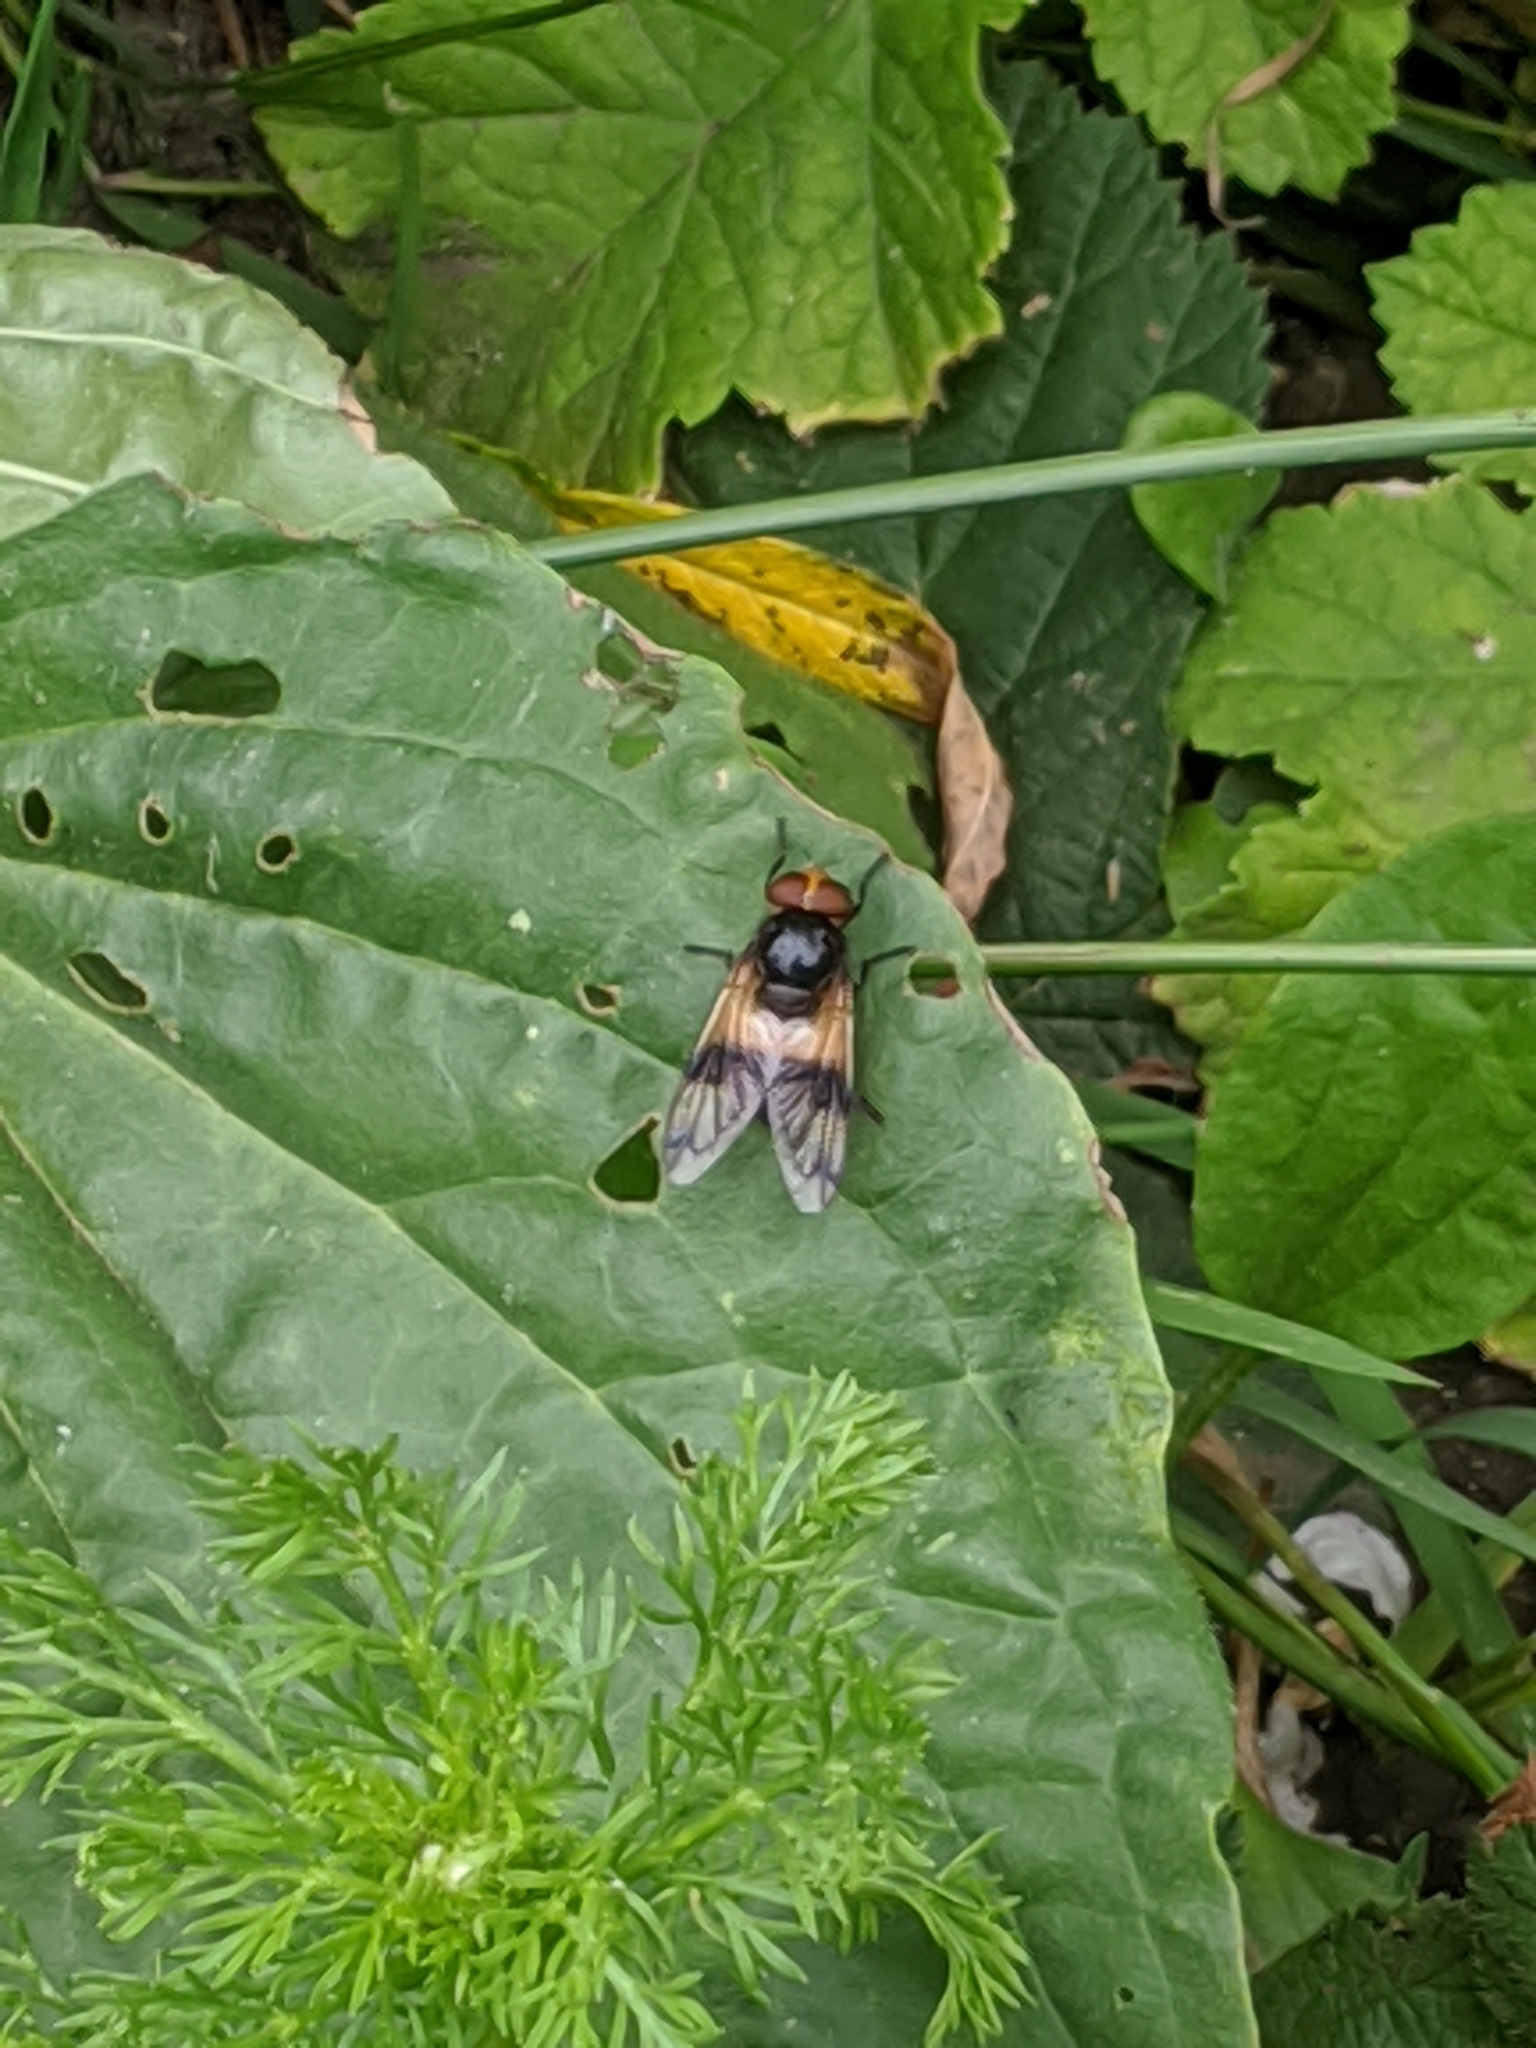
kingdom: Animalia
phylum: Arthropoda
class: Insecta
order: Diptera
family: Syrphidae
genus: Volucella
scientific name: Volucella pellucens
